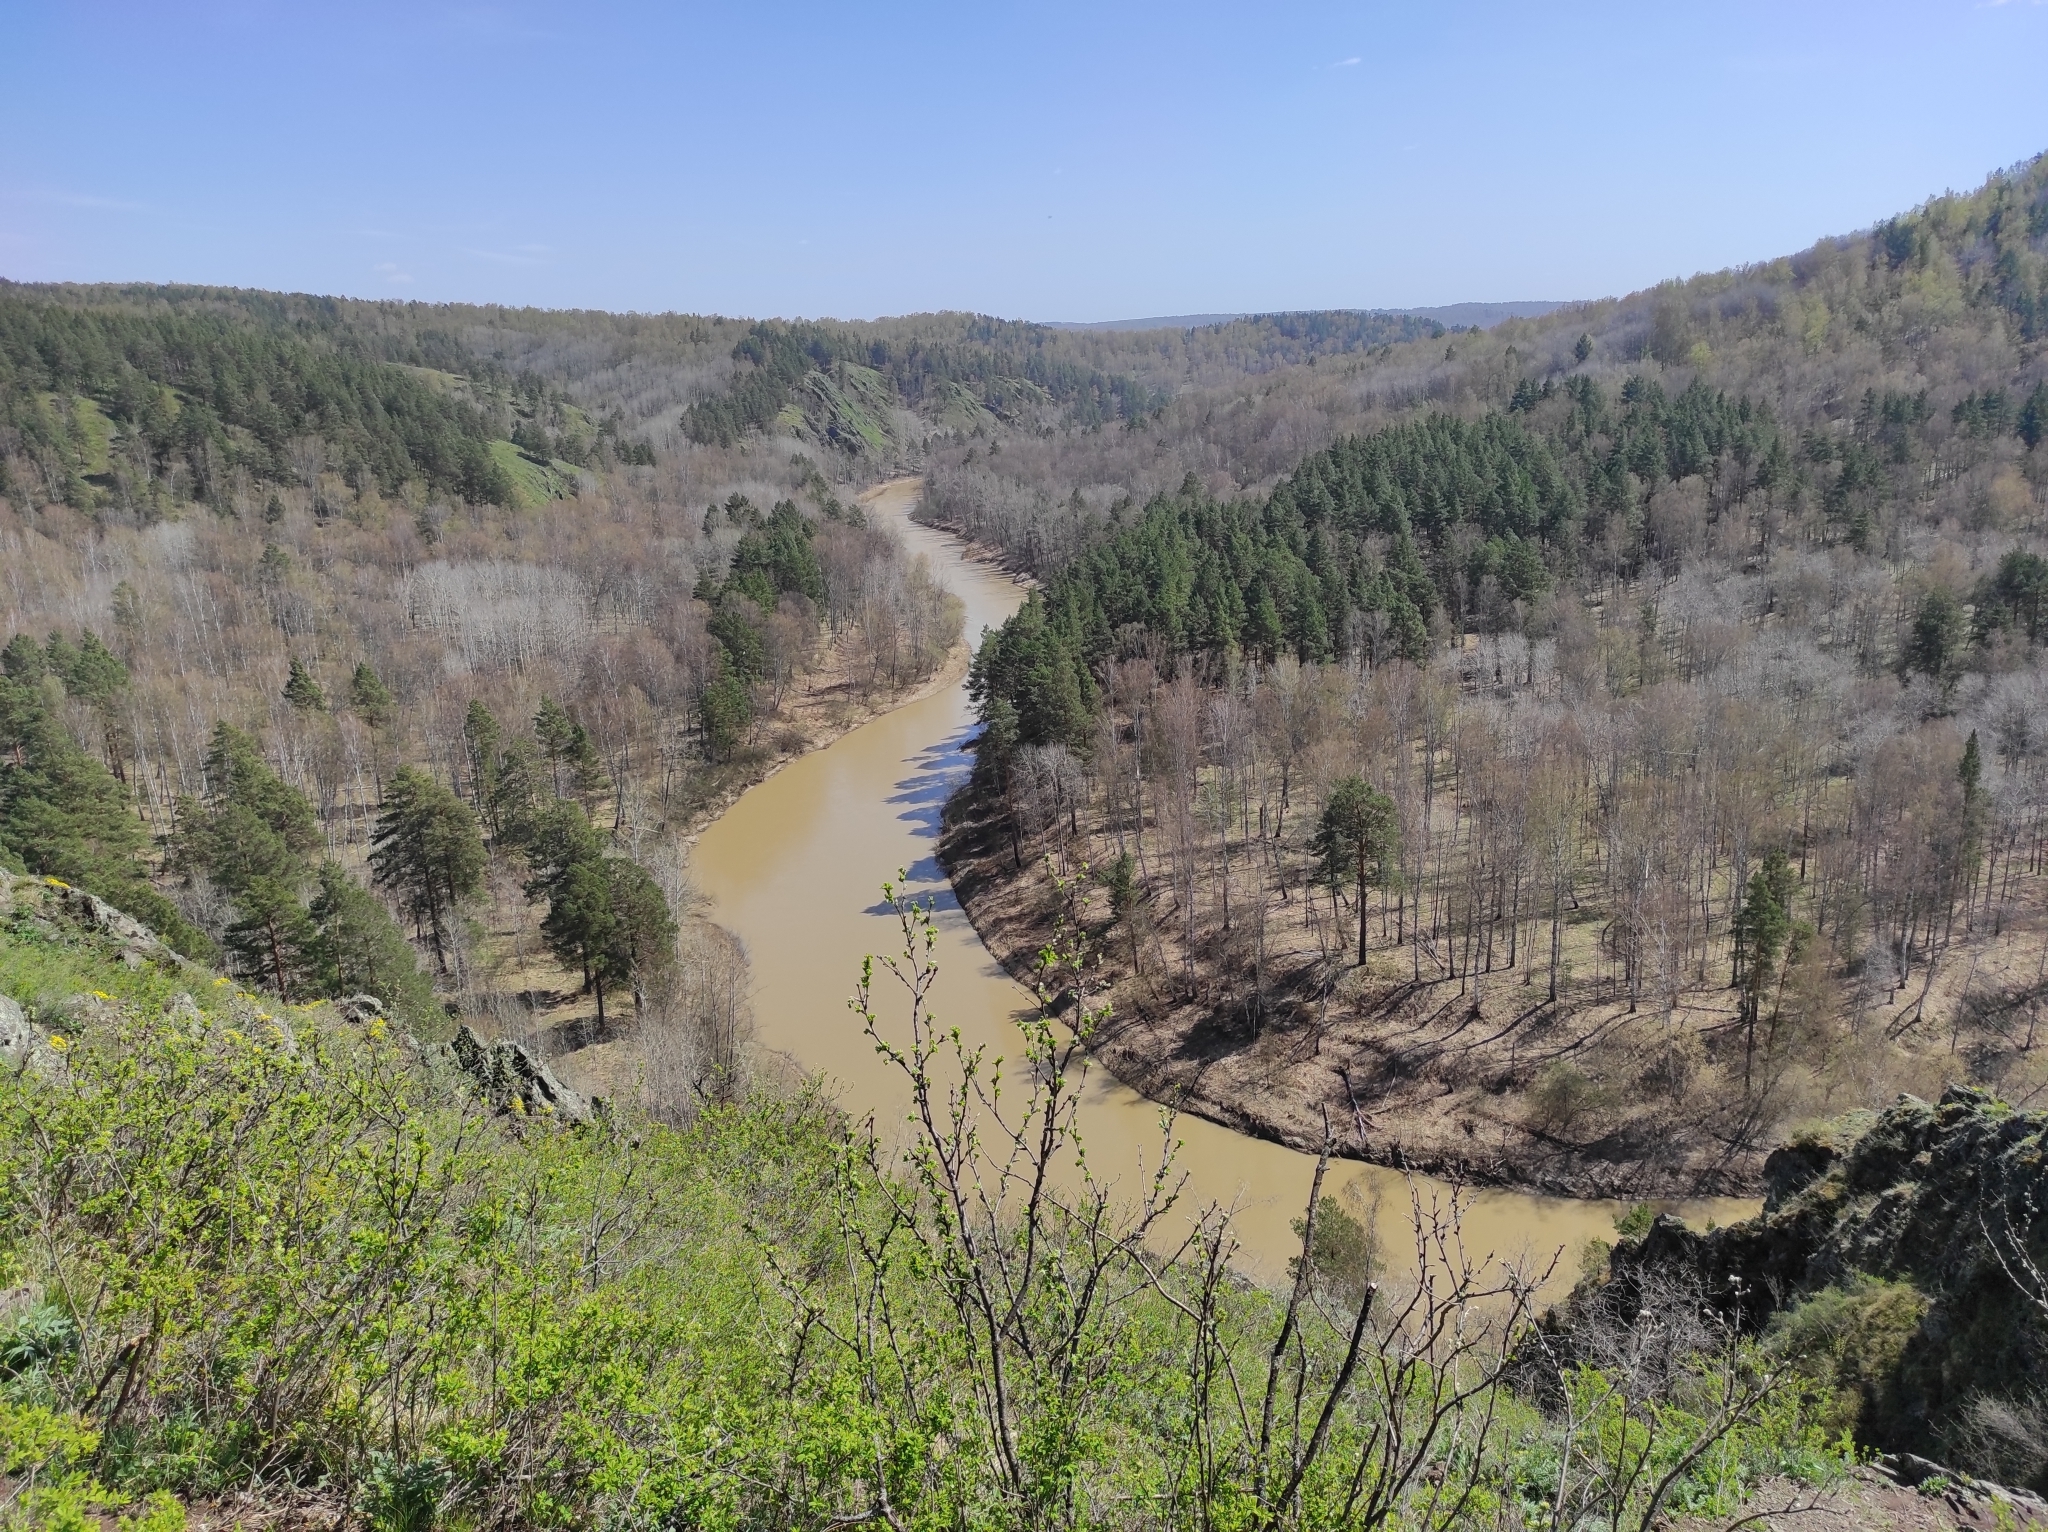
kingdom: Plantae
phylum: Tracheophyta
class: Pinopsida
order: Pinales
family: Pinaceae
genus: Pinus
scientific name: Pinus sylvestris
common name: Scots pine
